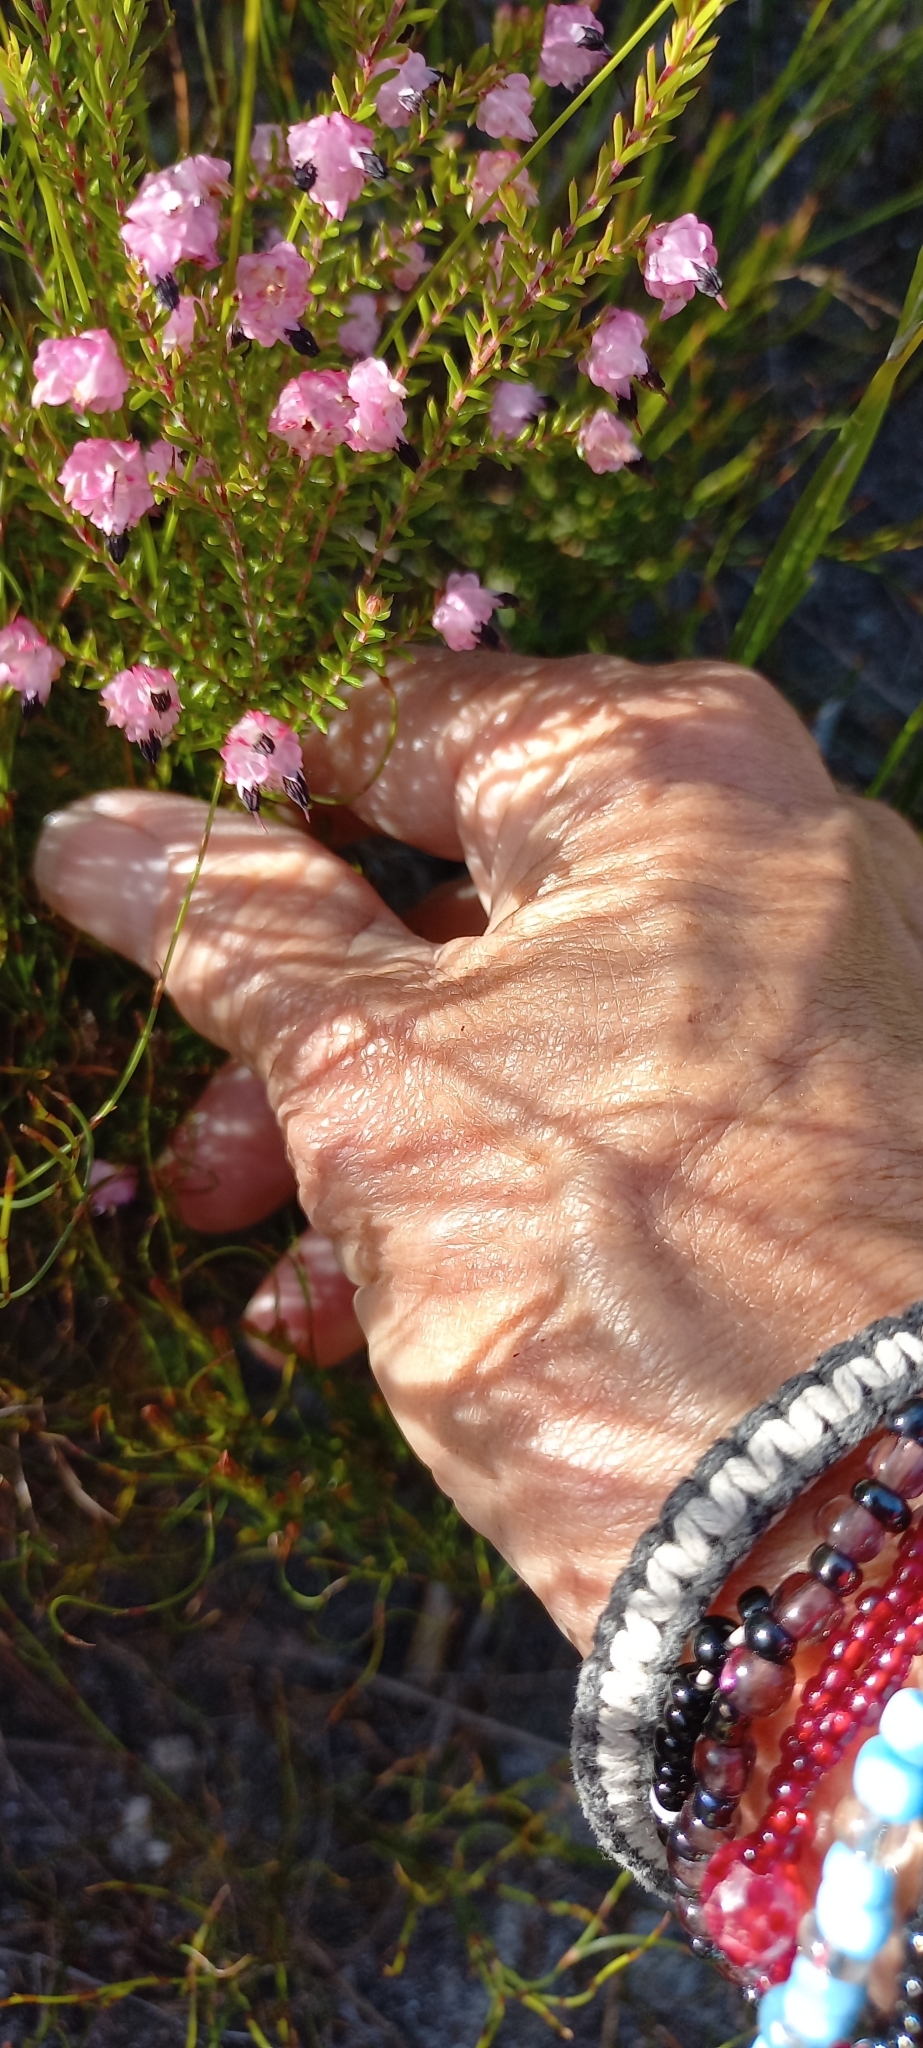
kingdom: Plantae
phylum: Tracheophyta
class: Magnoliopsida
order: Ericales
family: Ericaceae
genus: Erica
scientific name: Erica spumosa
